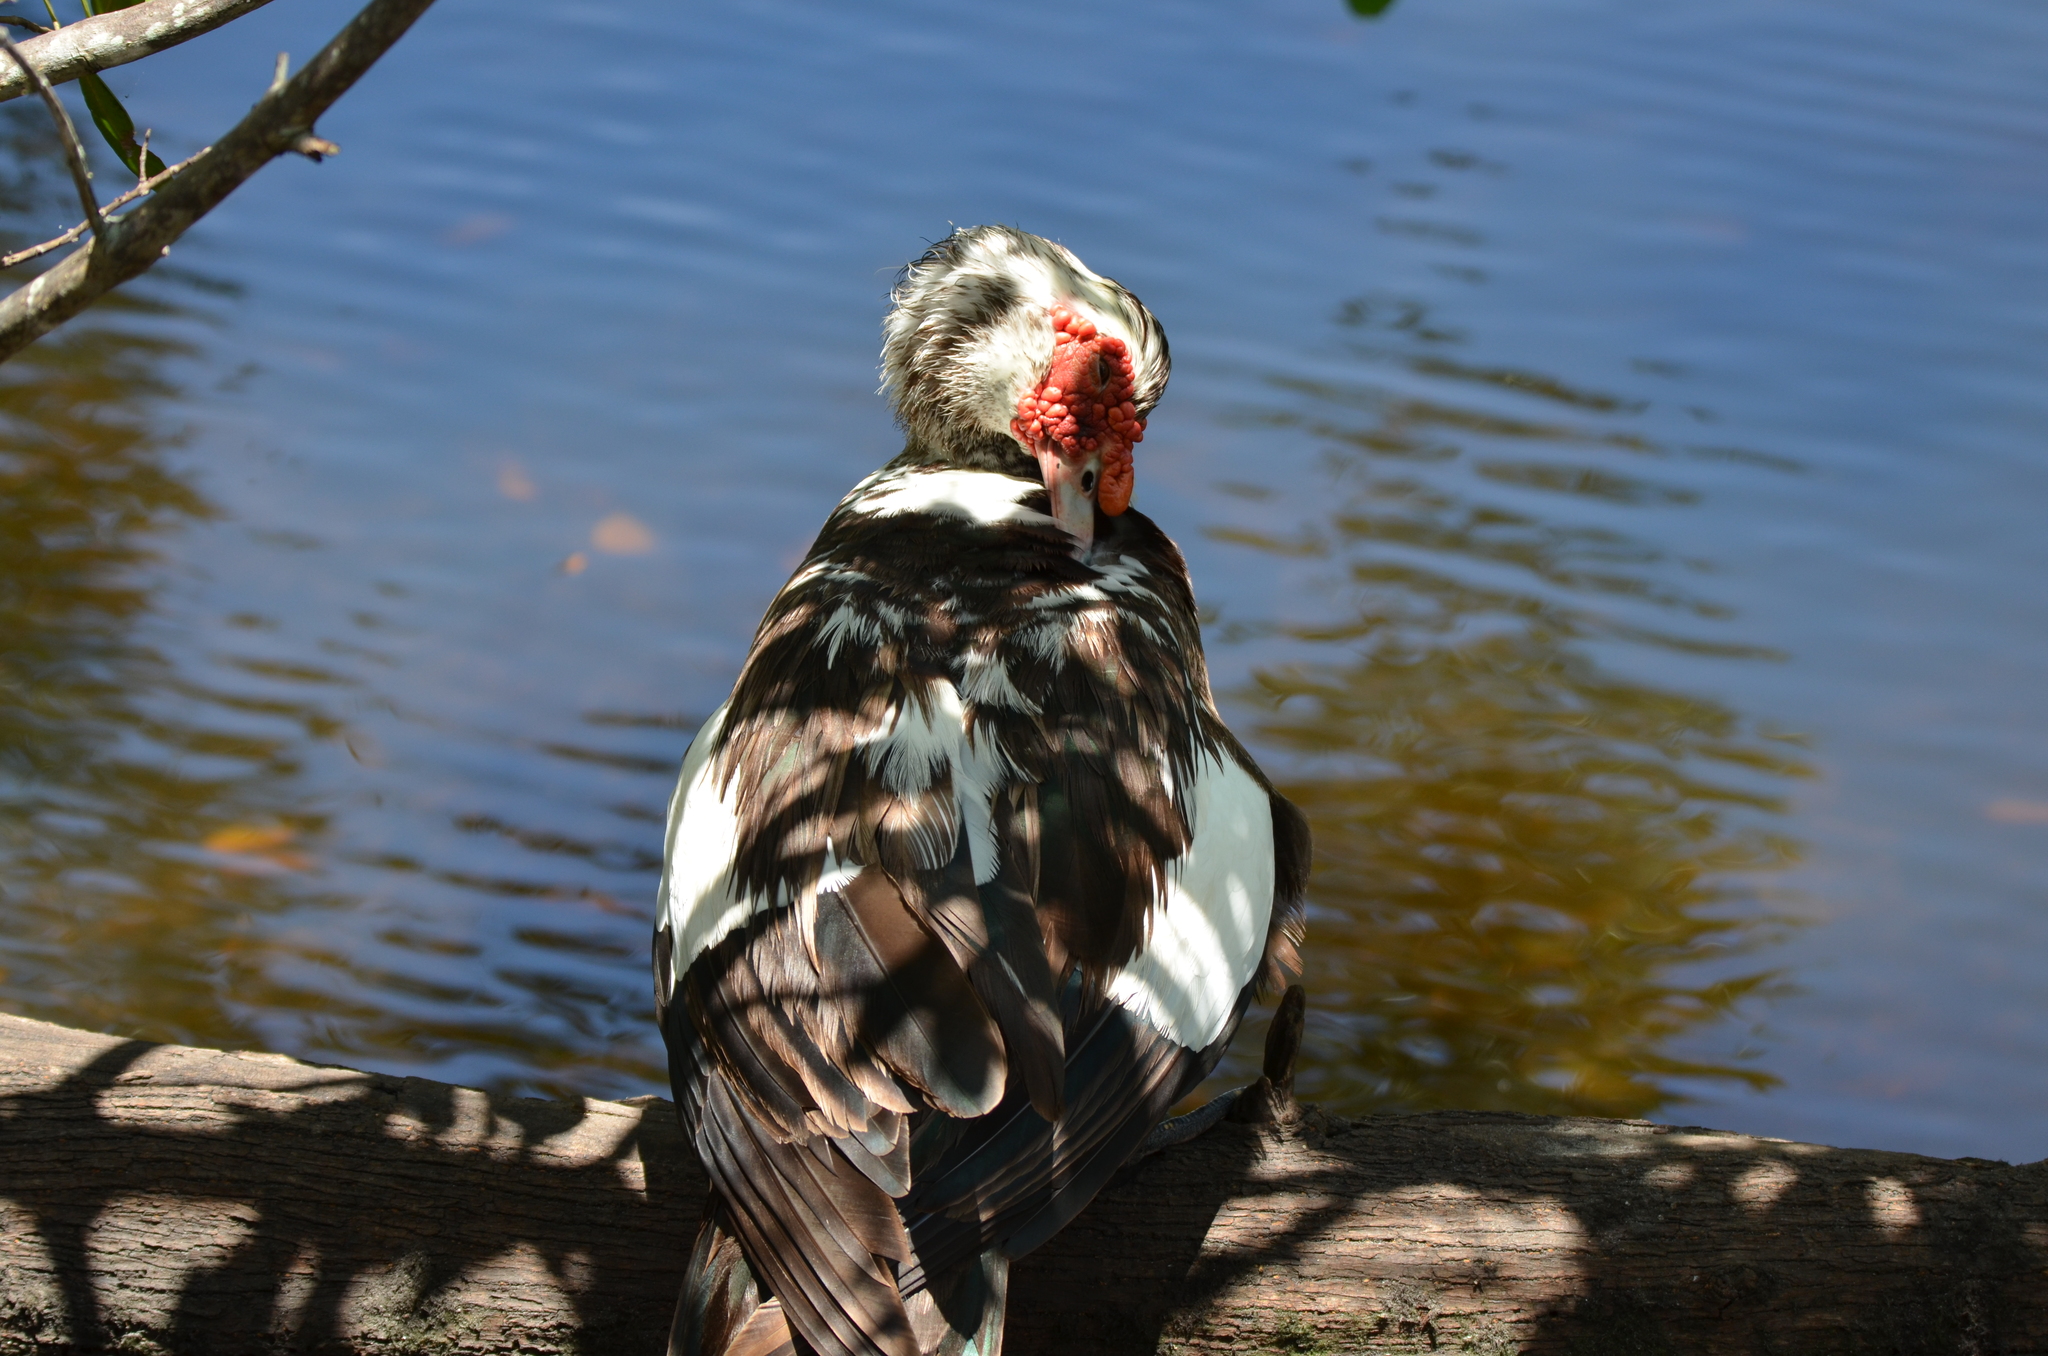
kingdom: Animalia
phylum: Chordata
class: Aves
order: Anseriformes
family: Anatidae
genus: Cairina
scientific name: Cairina moschata
